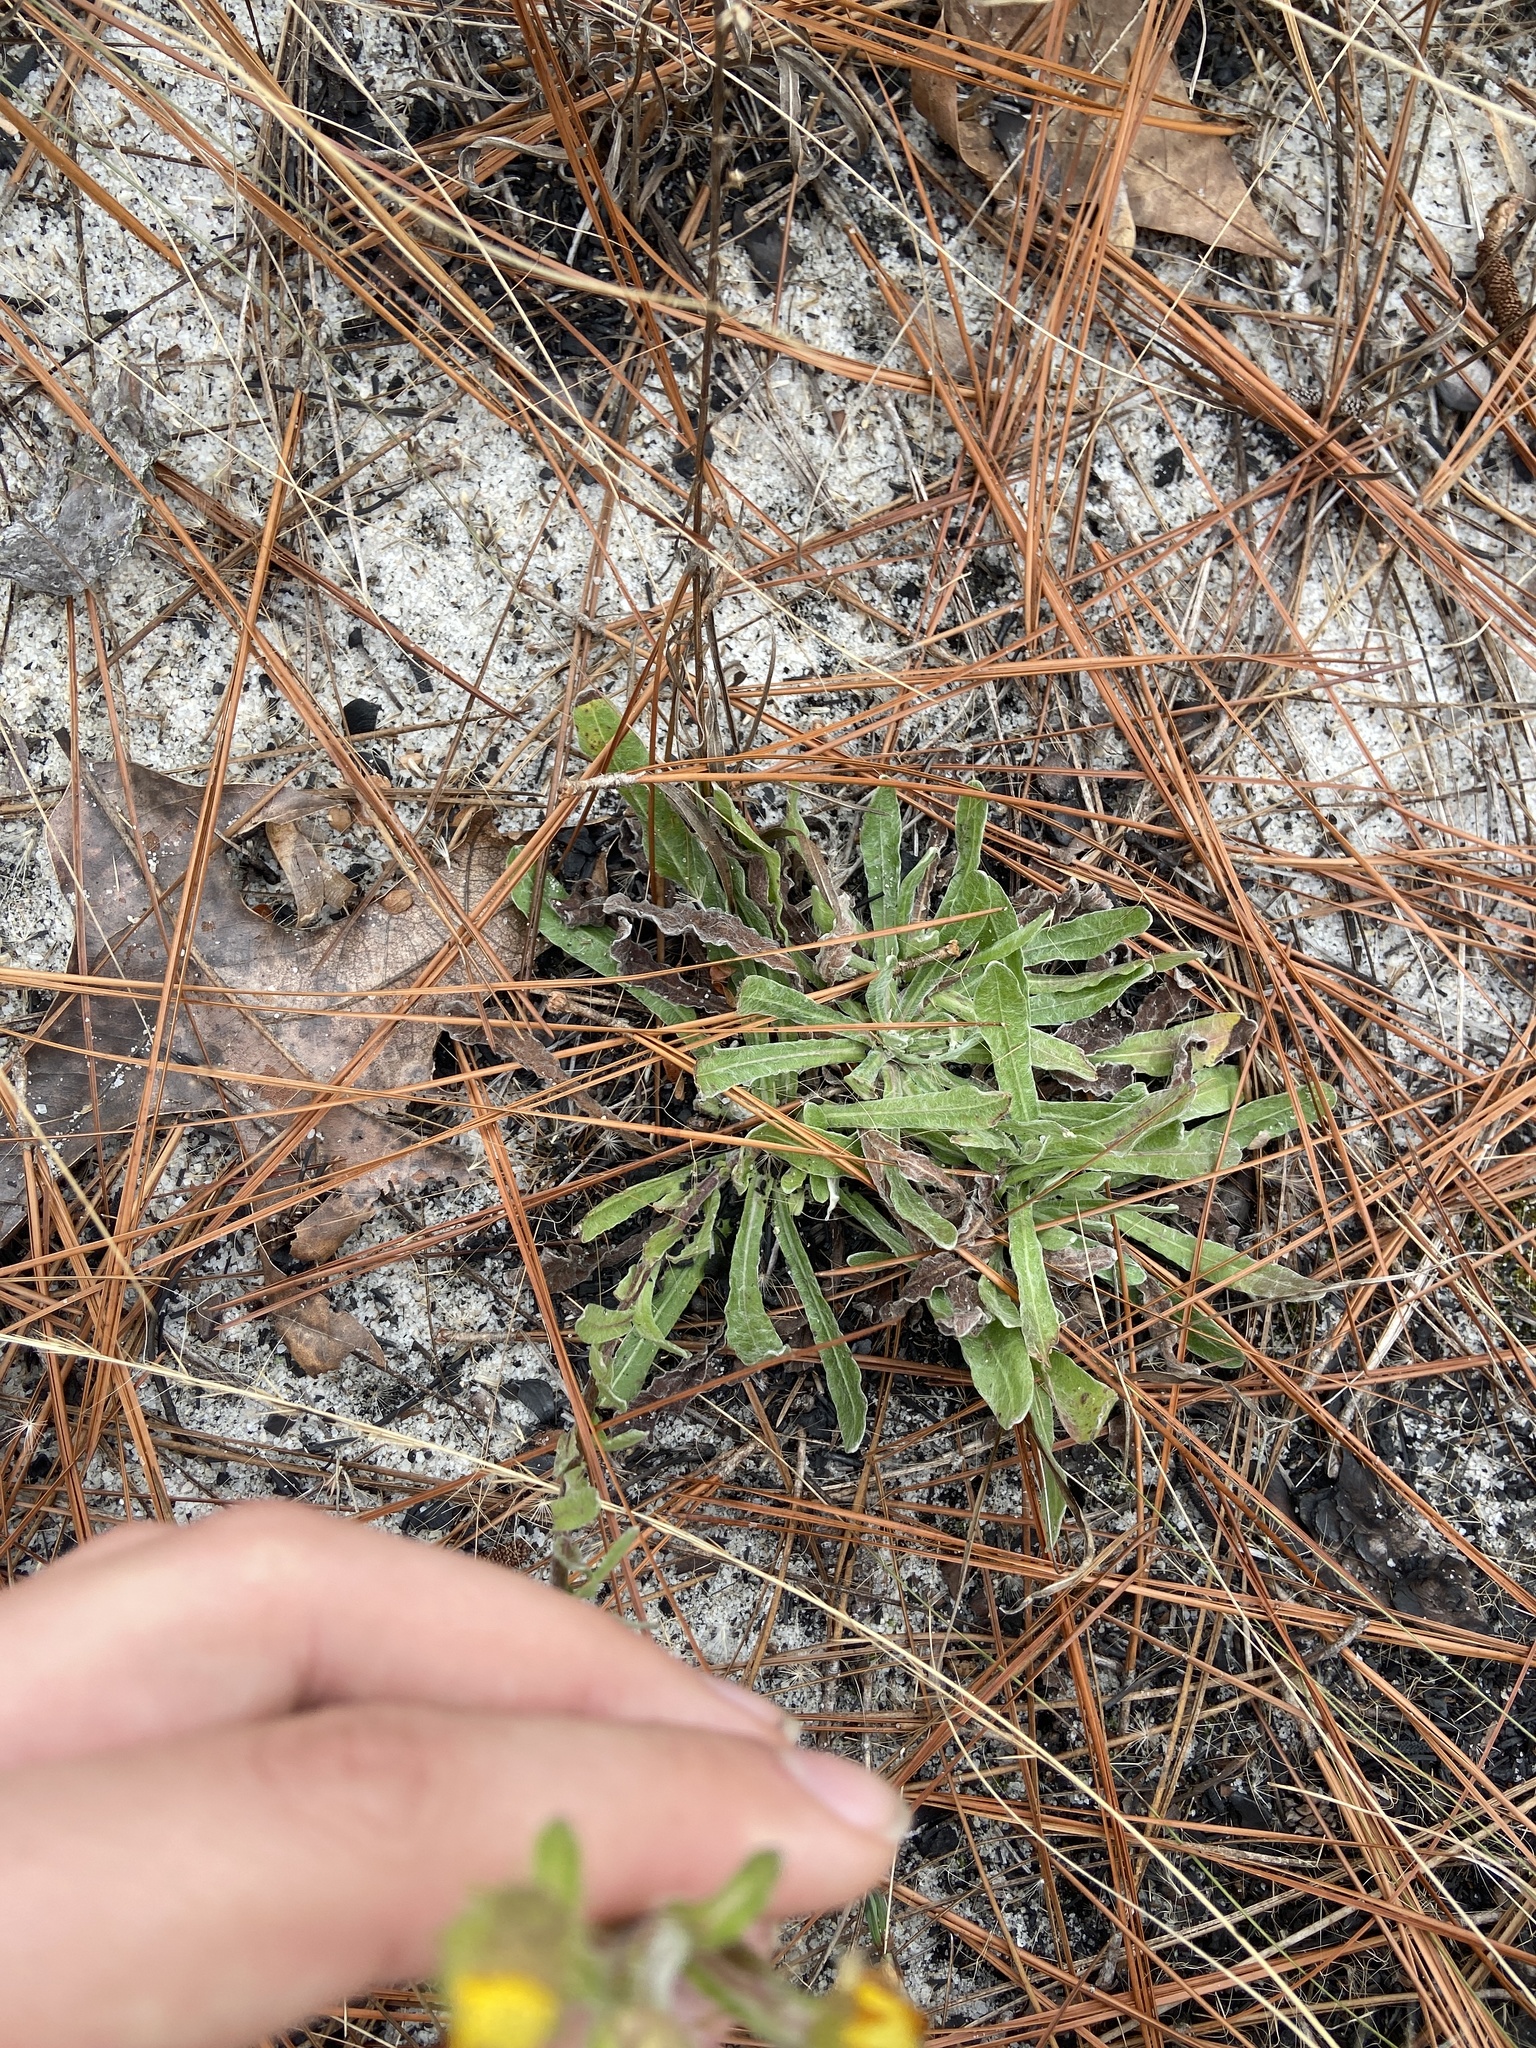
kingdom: Plantae
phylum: Tracheophyta
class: Magnoliopsida
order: Asterales
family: Asteraceae
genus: Chrysopsis
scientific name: Chrysopsis gossypina
